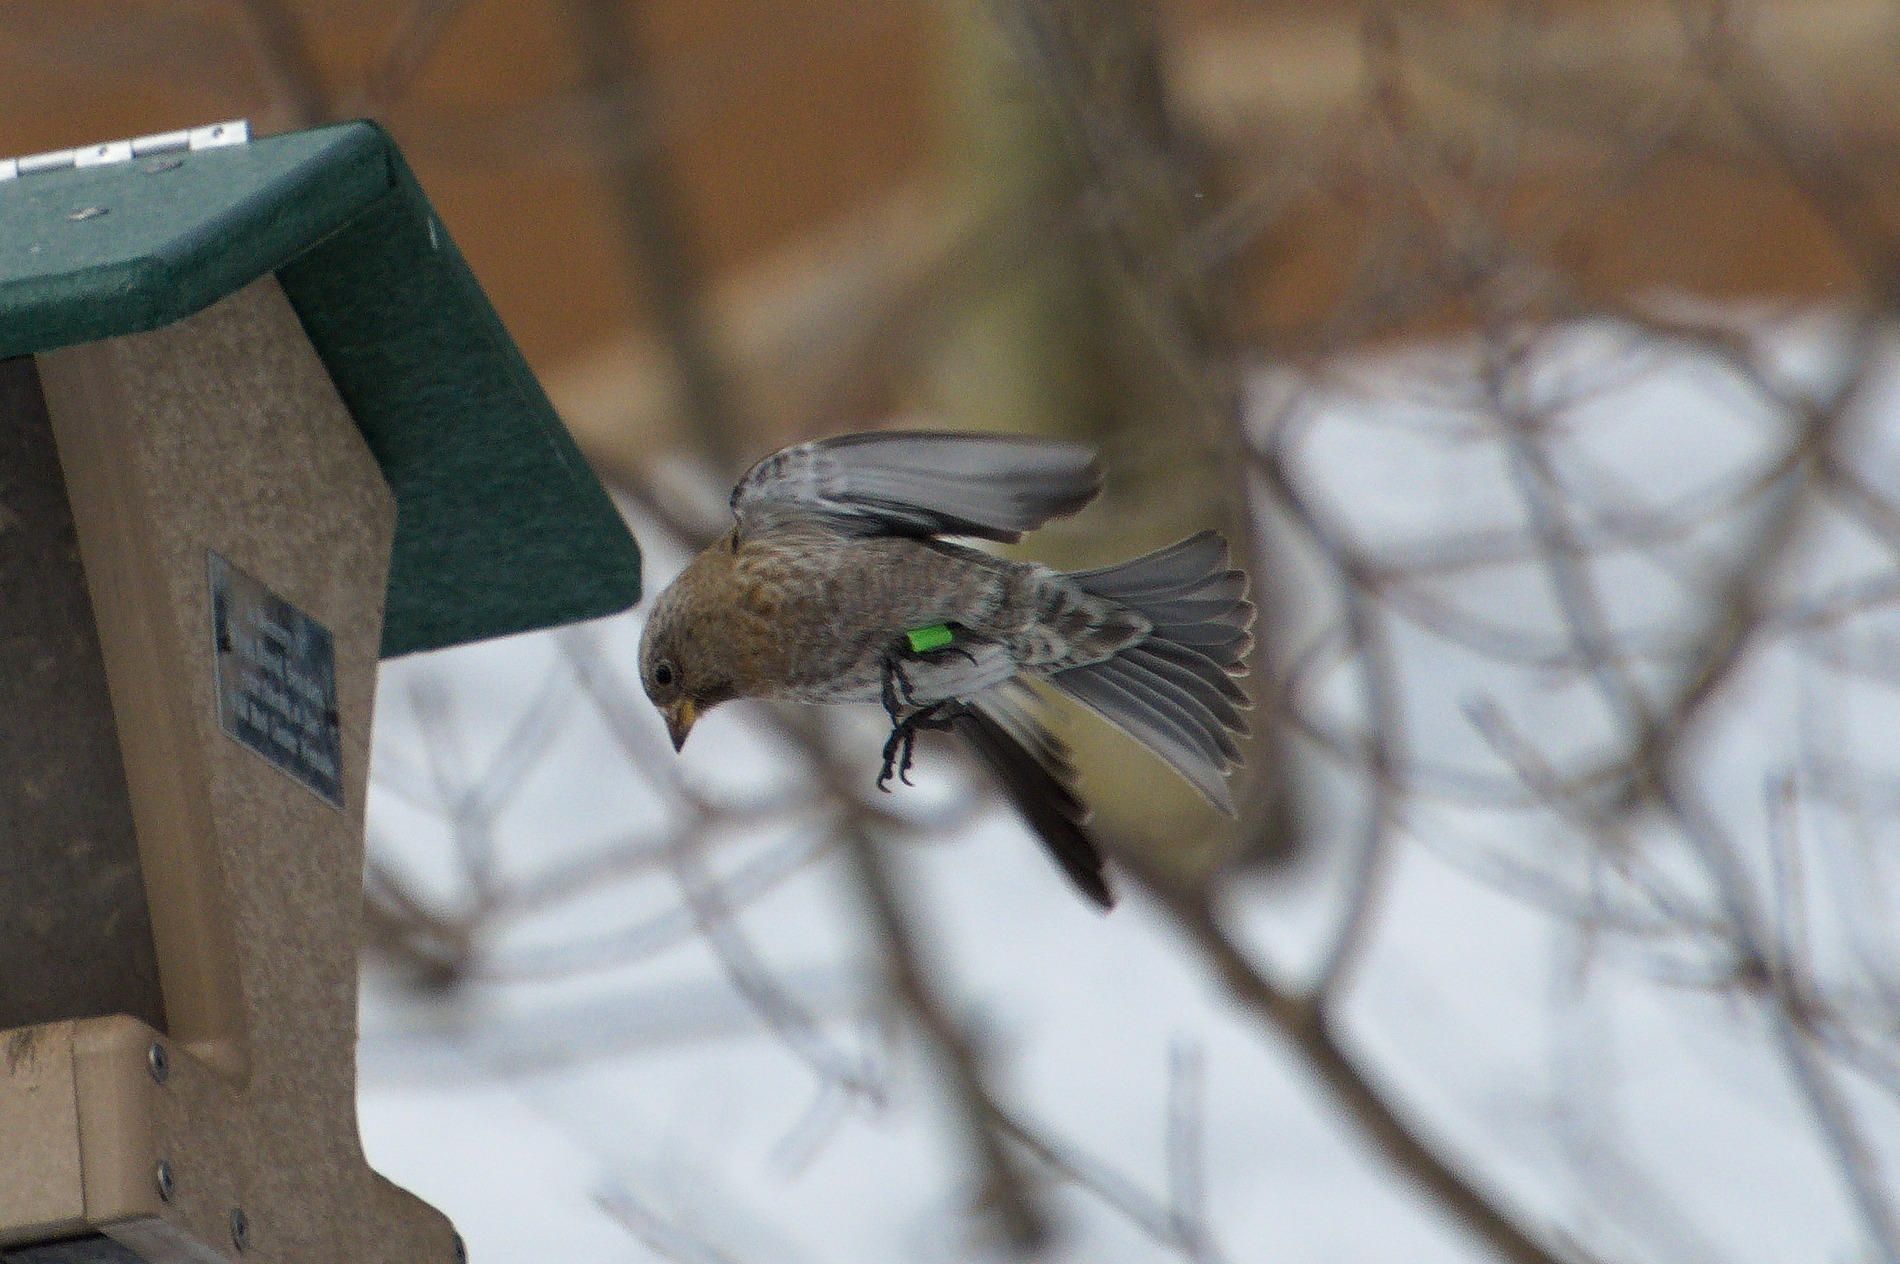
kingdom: Animalia
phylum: Chordata
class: Aves
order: Passeriformes
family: Fringillidae
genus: Leucosticte
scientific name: Leucosticte australis
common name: Brown-capped rosy-finch
